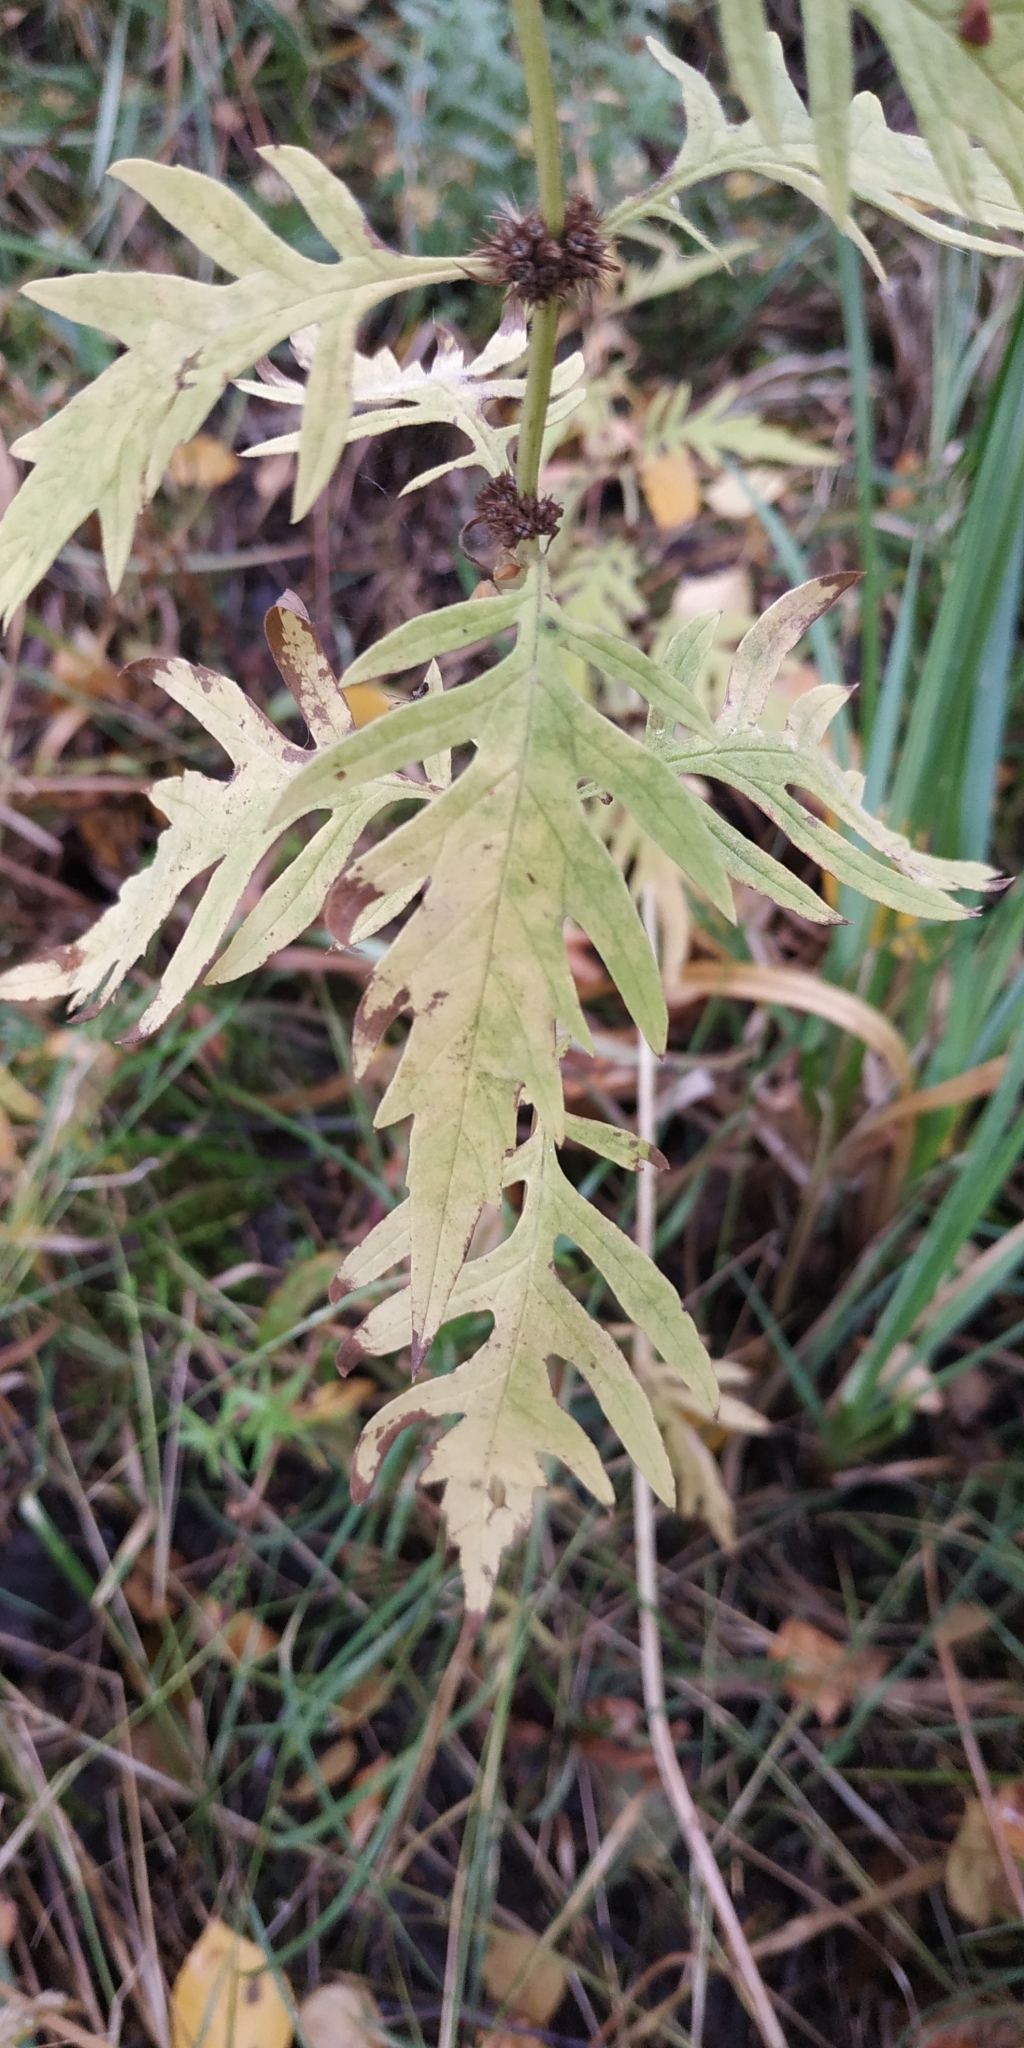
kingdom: Plantae
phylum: Tracheophyta
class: Magnoliopsida
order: Lamiales
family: Lamiaceae
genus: Lycopus
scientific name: Lycopus exaltatus
